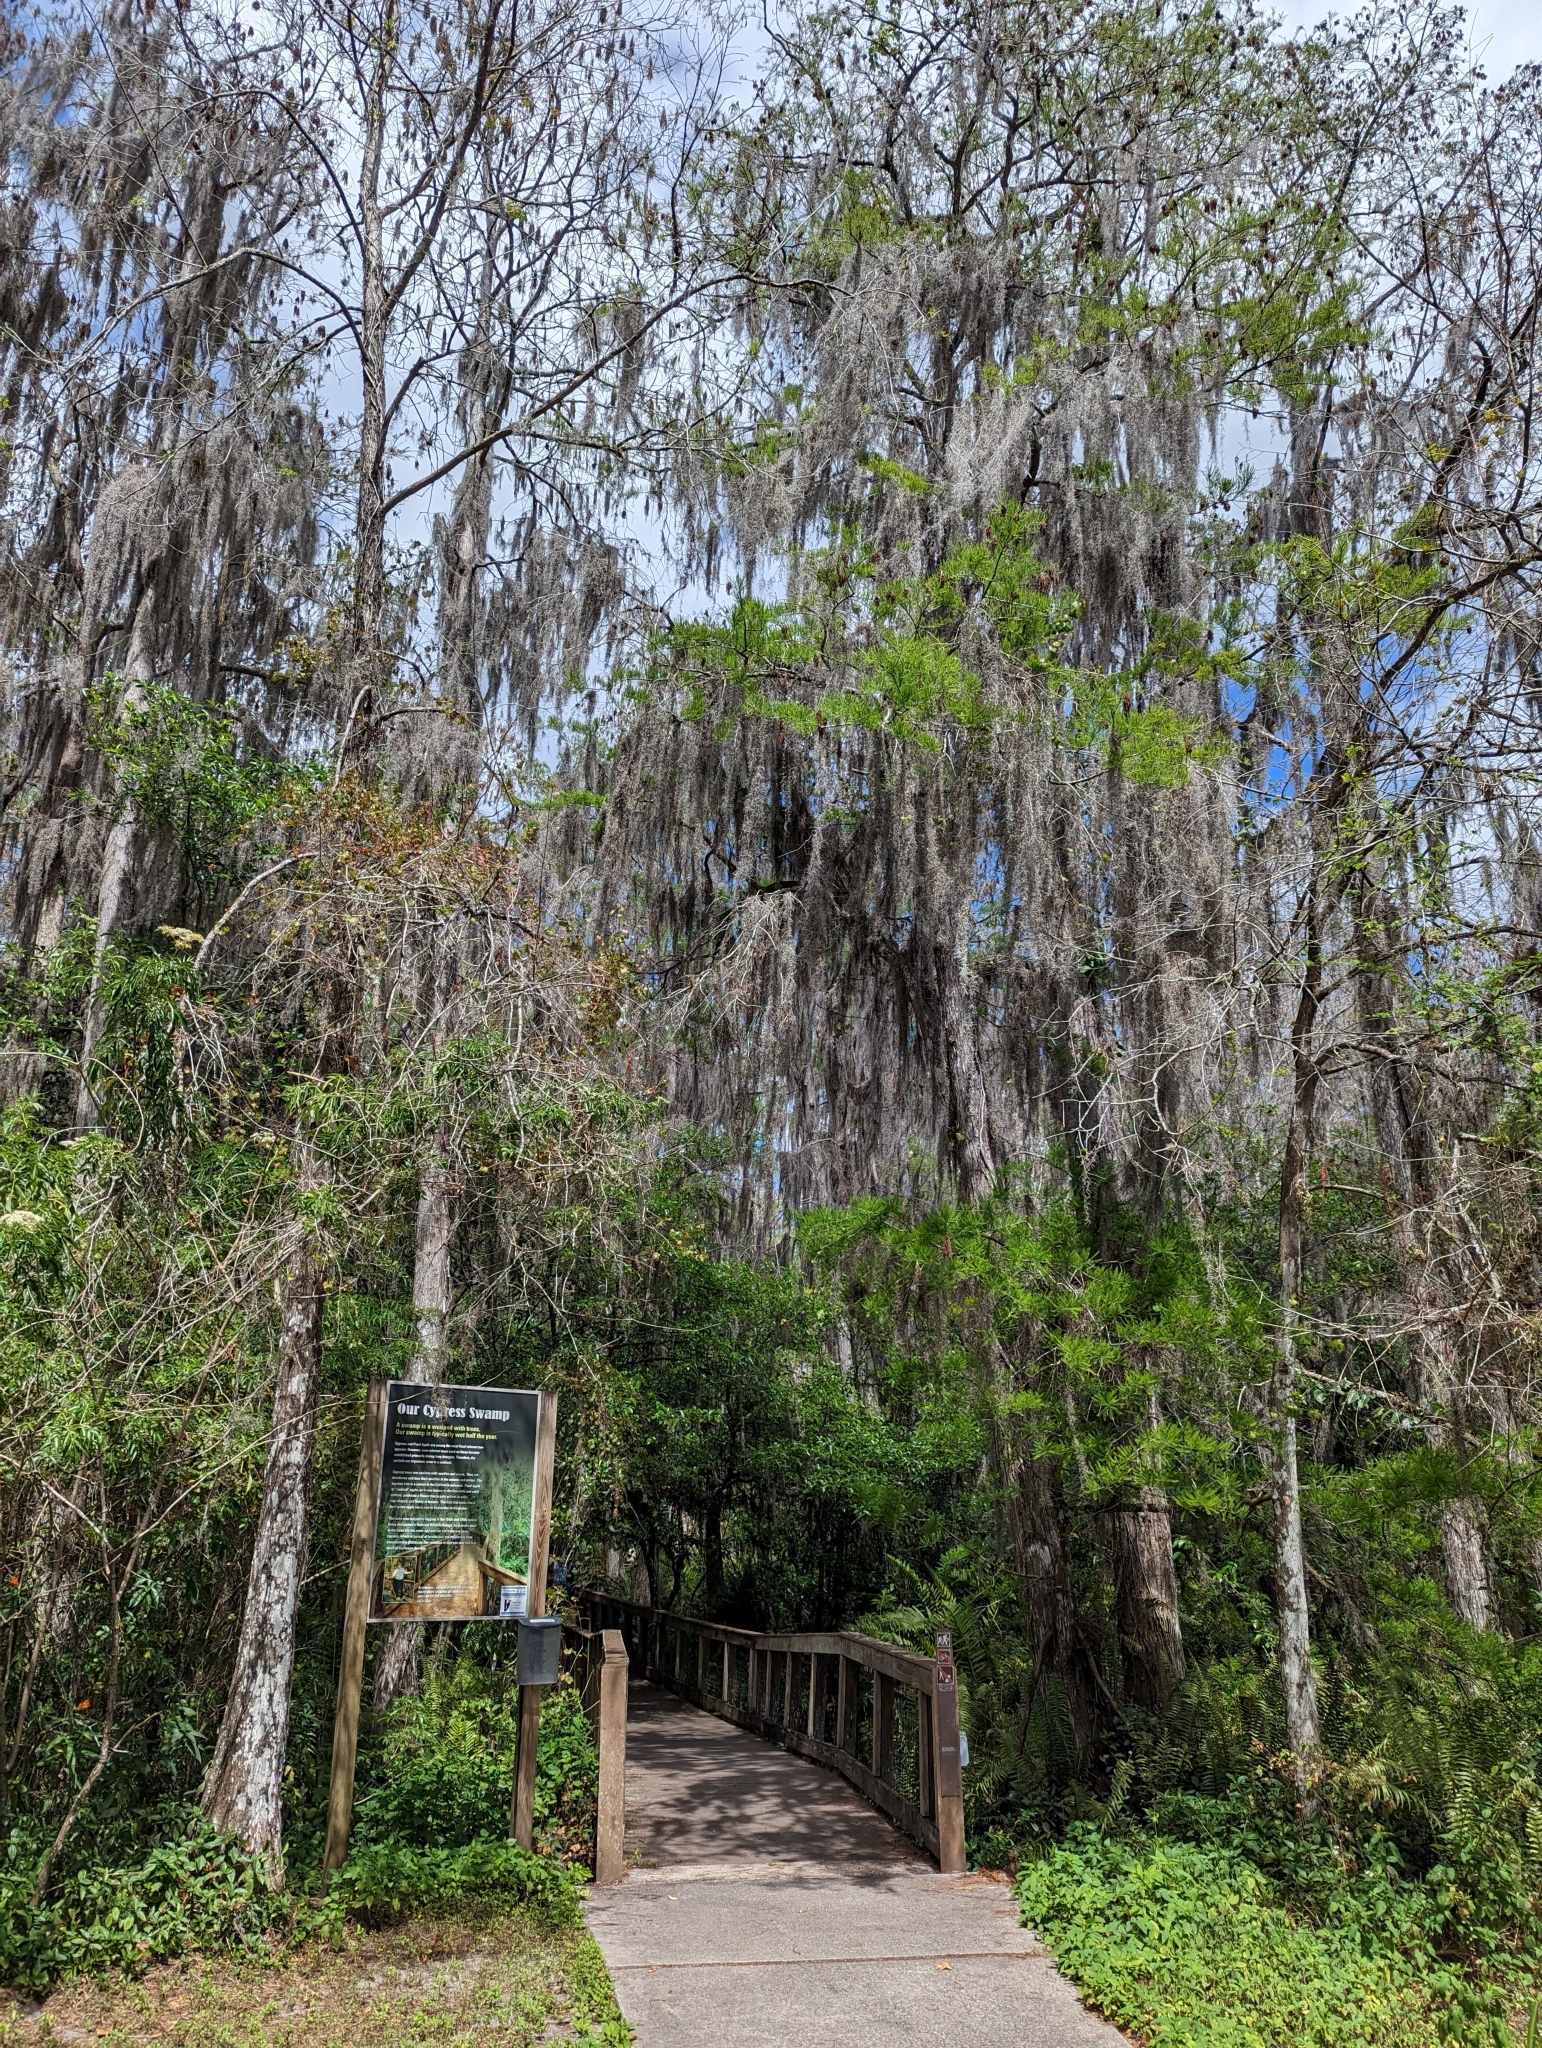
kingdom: Plantae
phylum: Tracheophyta
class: Liliopsida
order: Poales
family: Bromeliaceae
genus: Tillandsia
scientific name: Tillandsia usneoides
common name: Spanish moss
